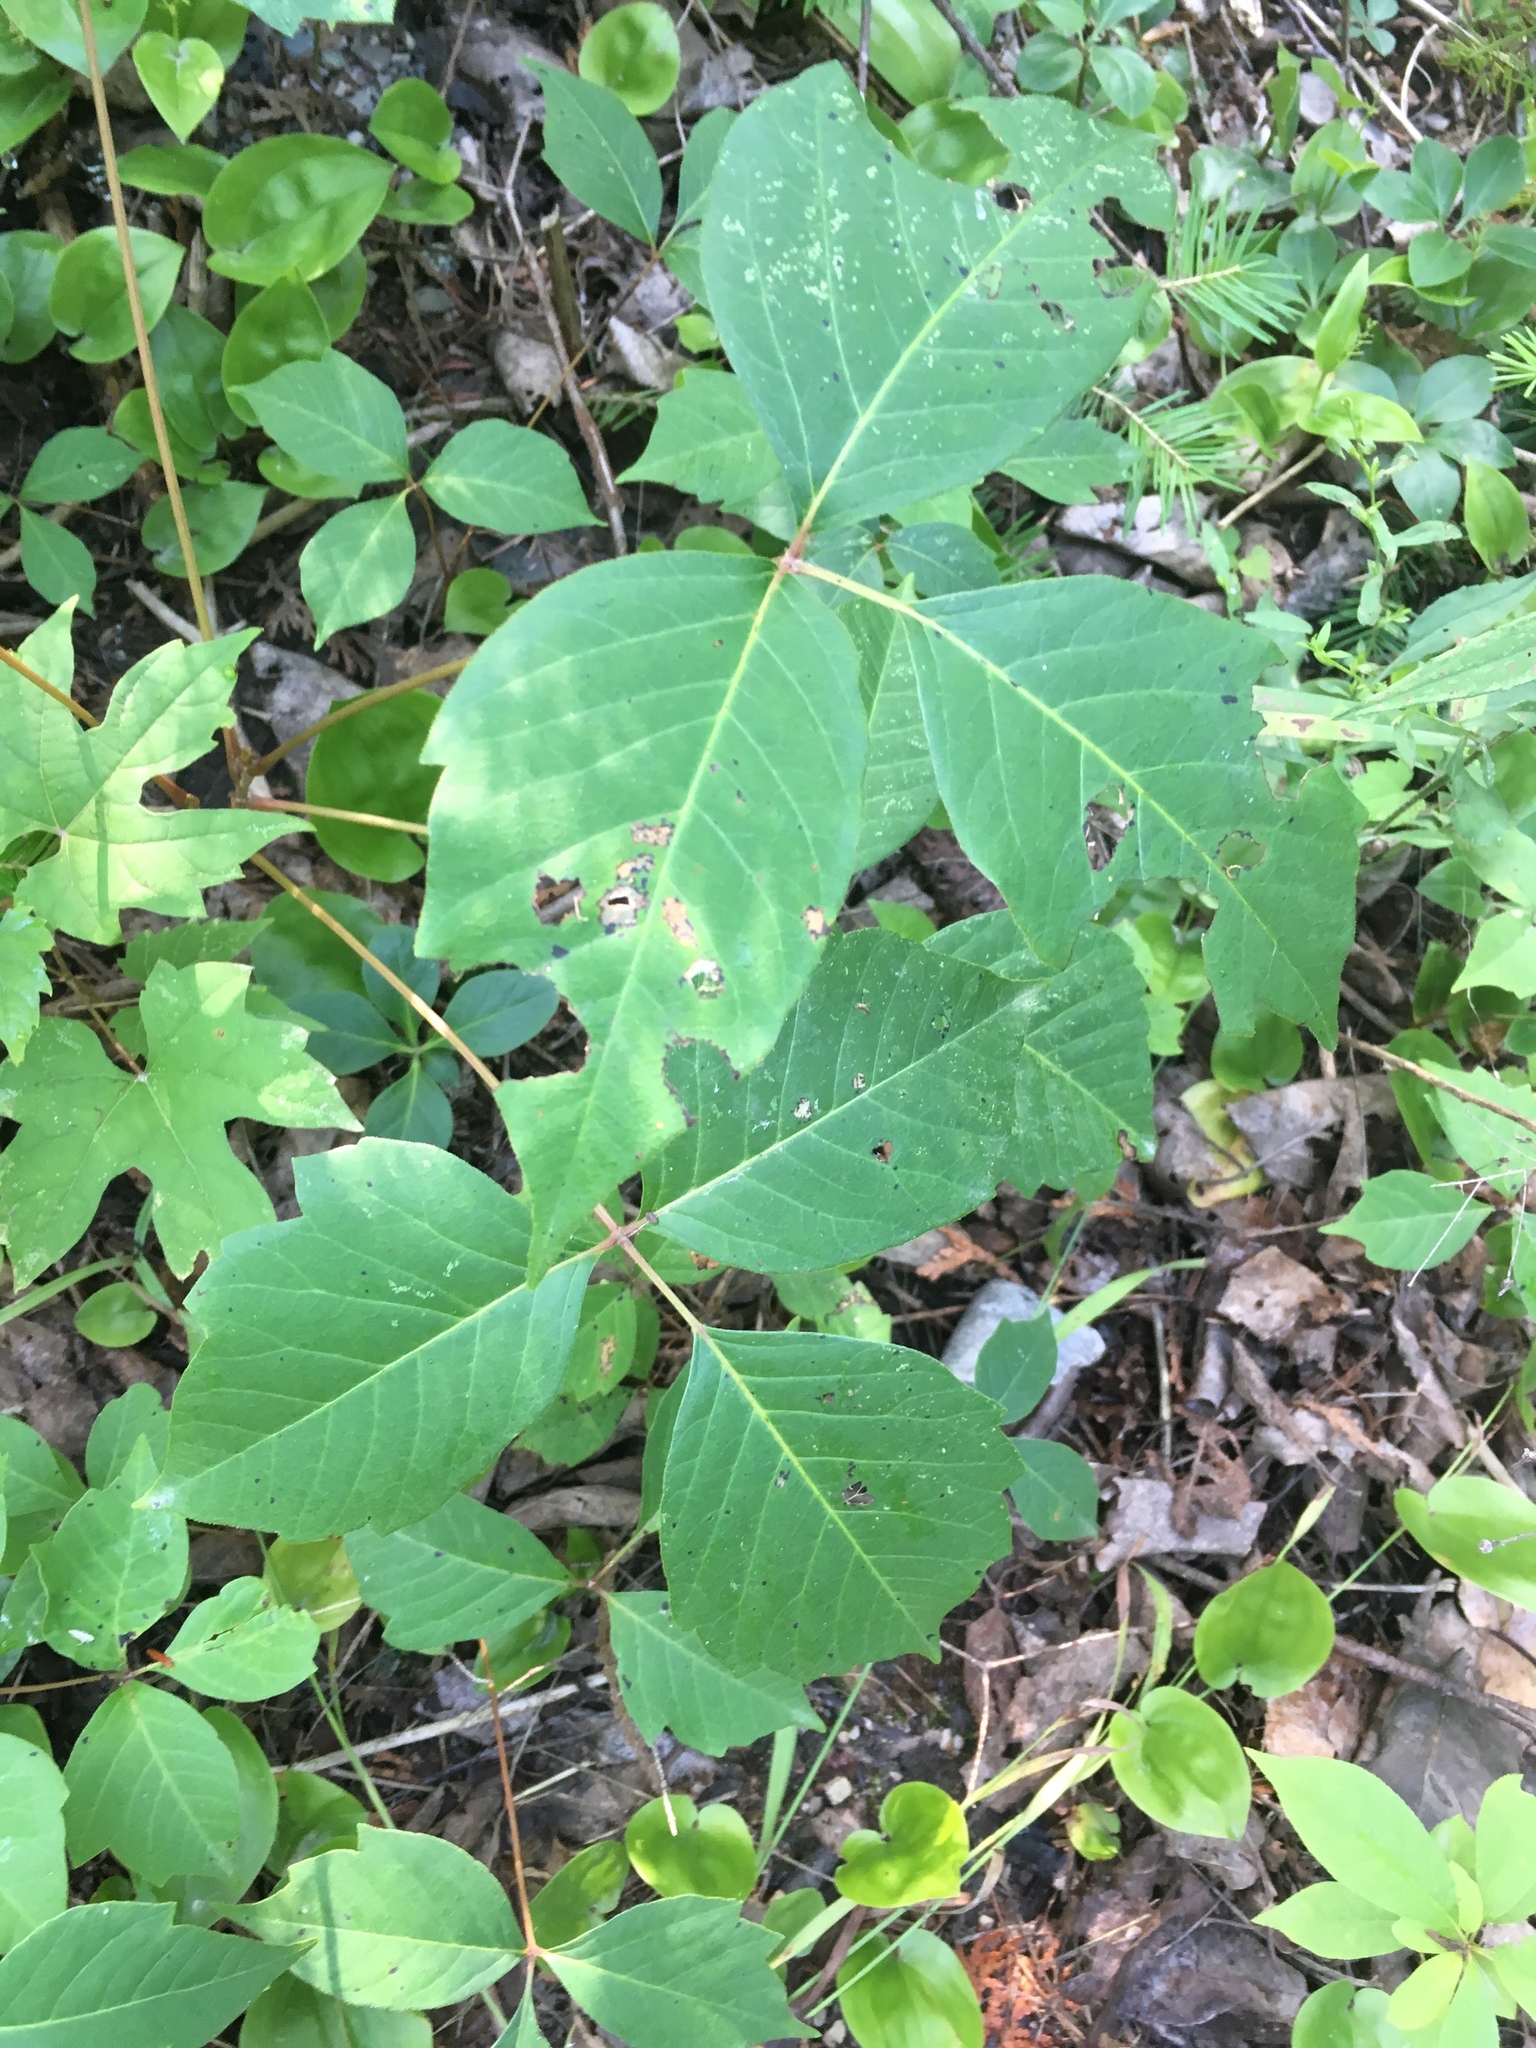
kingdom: Plantae
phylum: Tracheophyta
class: Magnoliopsida
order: Sapindales
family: Anacardiaceae
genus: Toxicodendron
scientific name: Toxicodendron radicans
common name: Poison ivy
